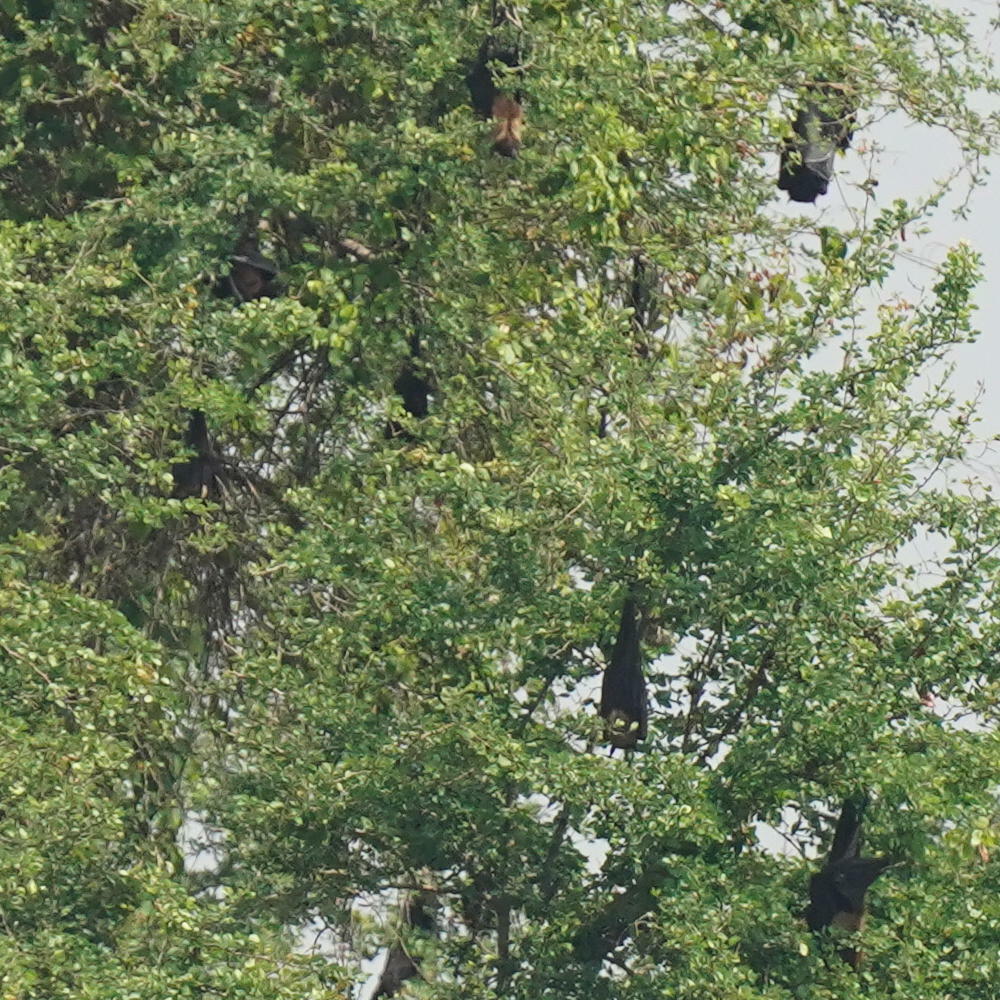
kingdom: Animalia
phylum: Chordata
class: Mammalia
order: Chiroptera
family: Pteropodidae
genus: Pteropus
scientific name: Pteropus vampyrus
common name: Large flying fox
